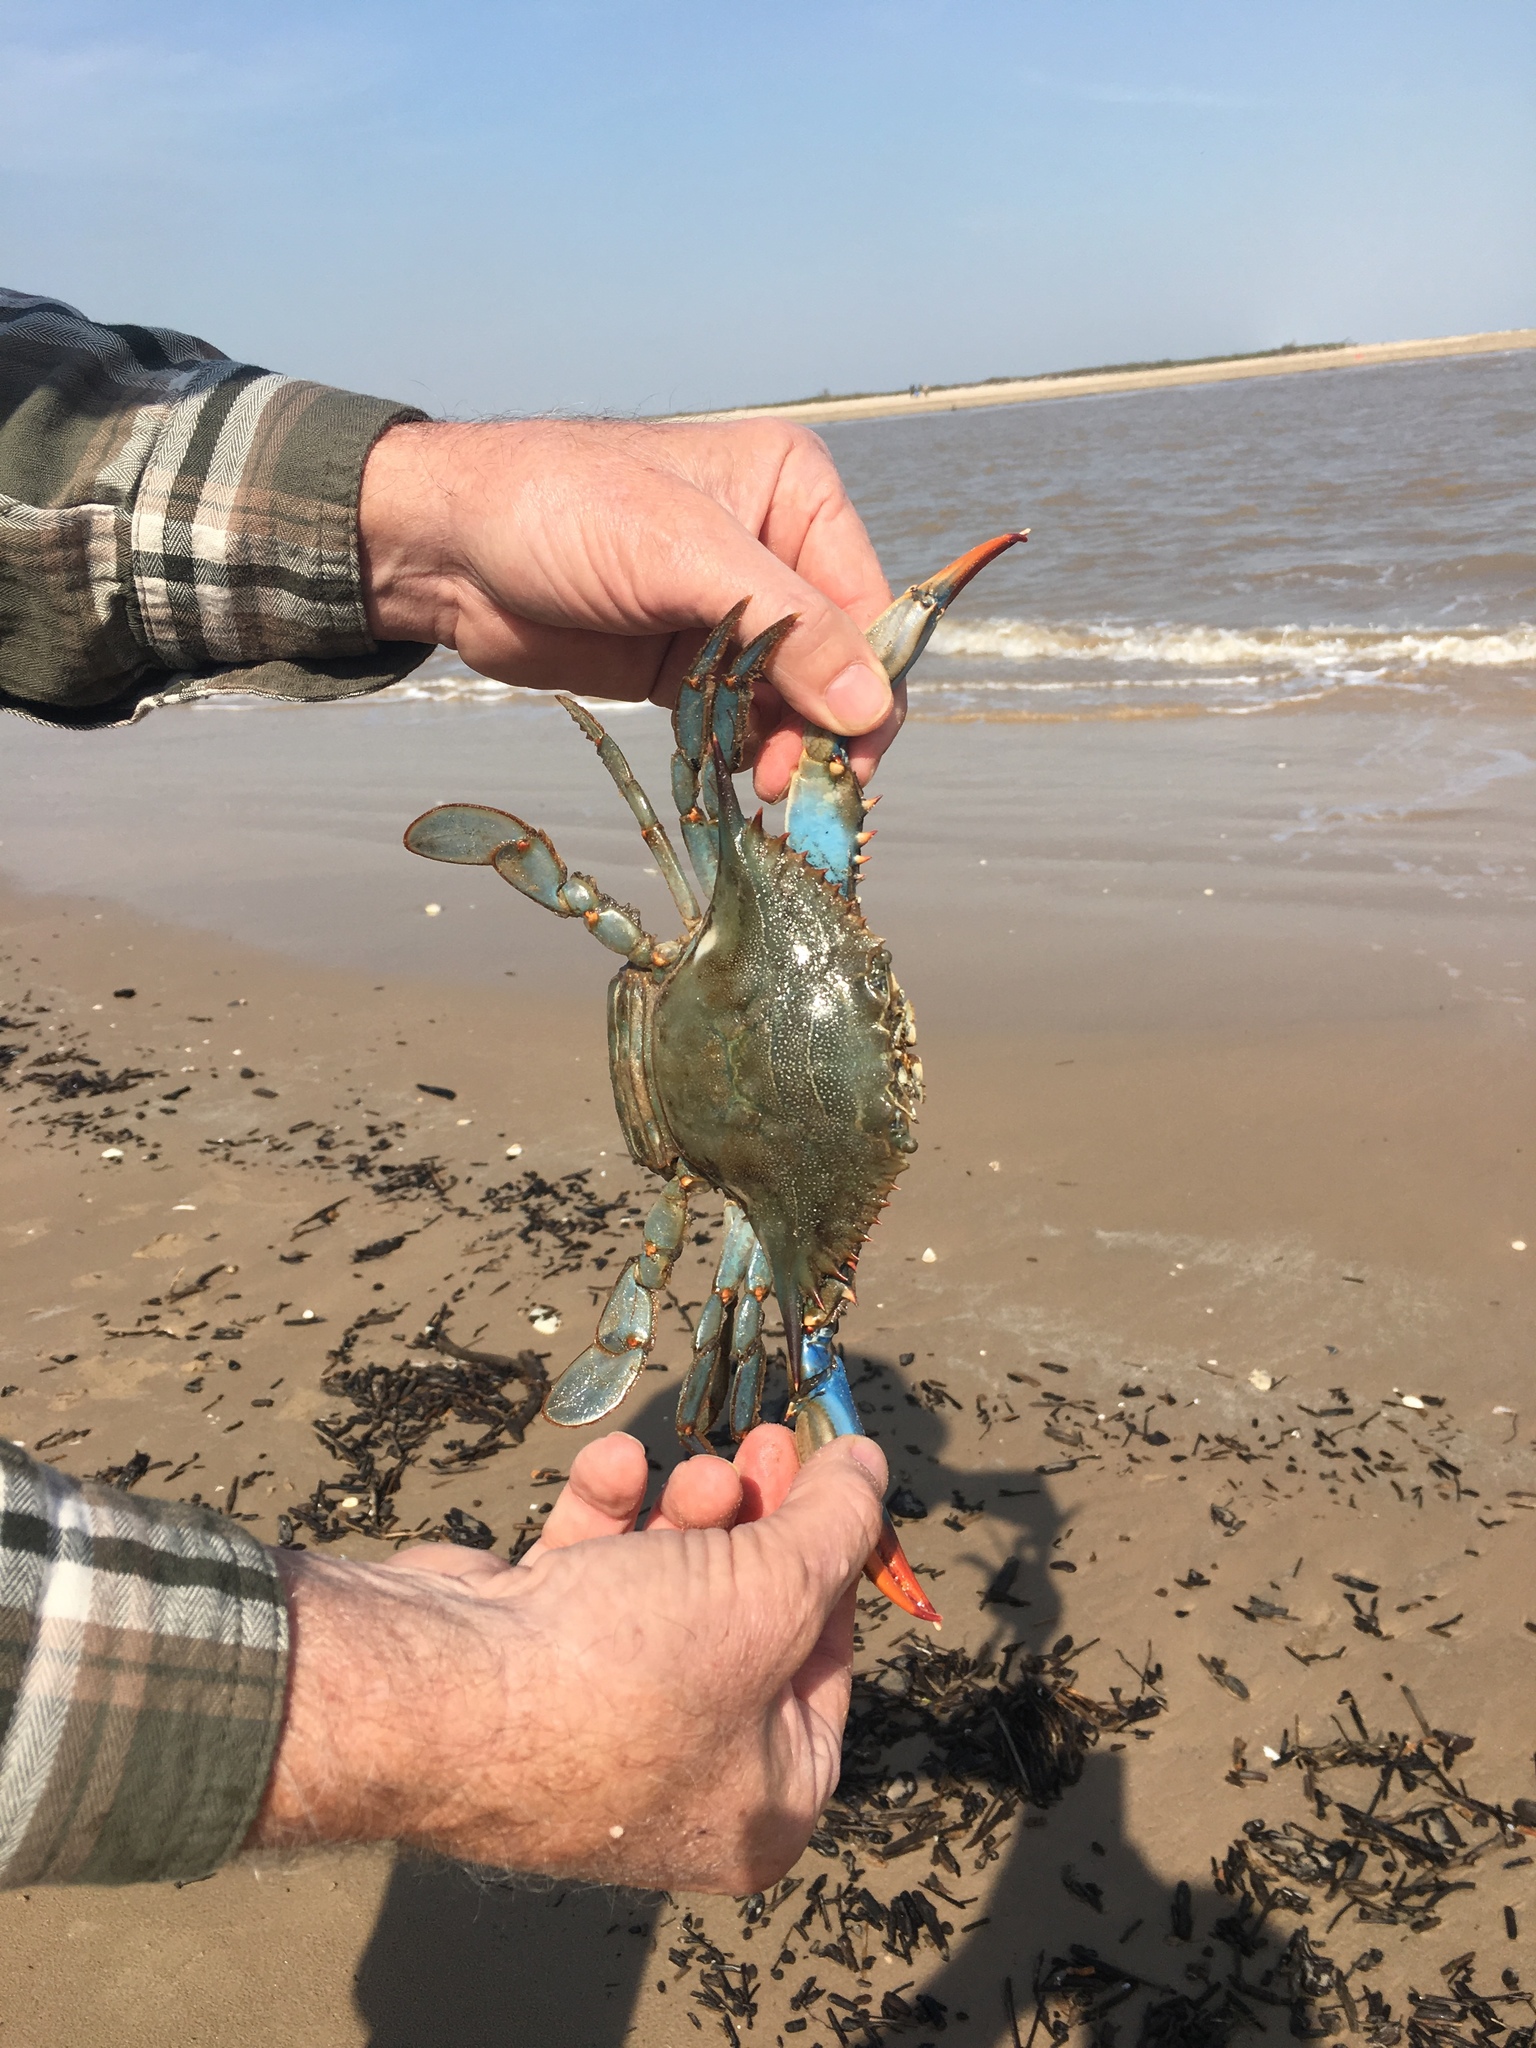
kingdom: Animalia
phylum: Arthropoda
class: Malacostraca
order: Decapoda
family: Portunidae
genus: Callinectes
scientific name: Callinectes sapidus
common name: Blue crab
